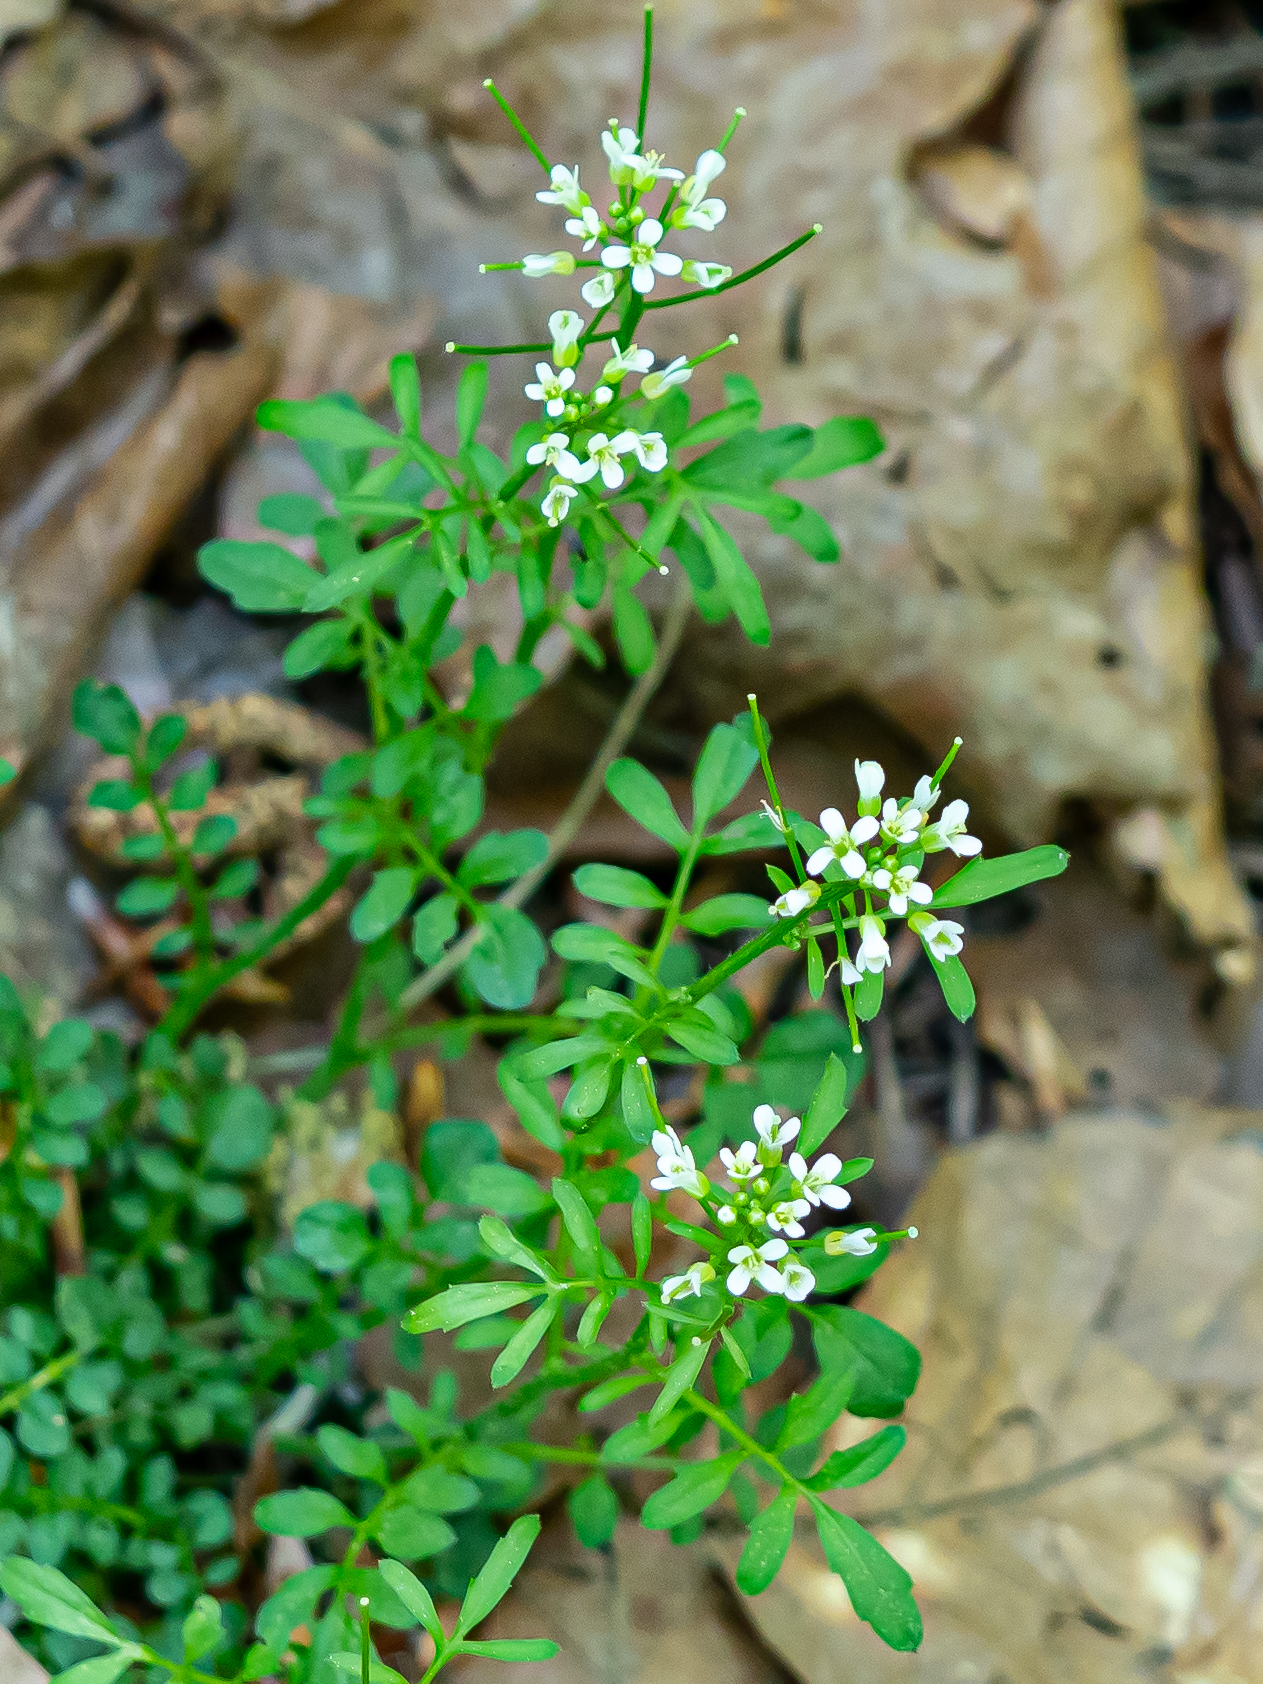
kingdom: Plantae
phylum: Tracheophyta
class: Magnoliopsida
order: Brassicales
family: Brassicaceae
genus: Cardamine
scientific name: Cardamine flexuosa
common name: Woodland bittercress
